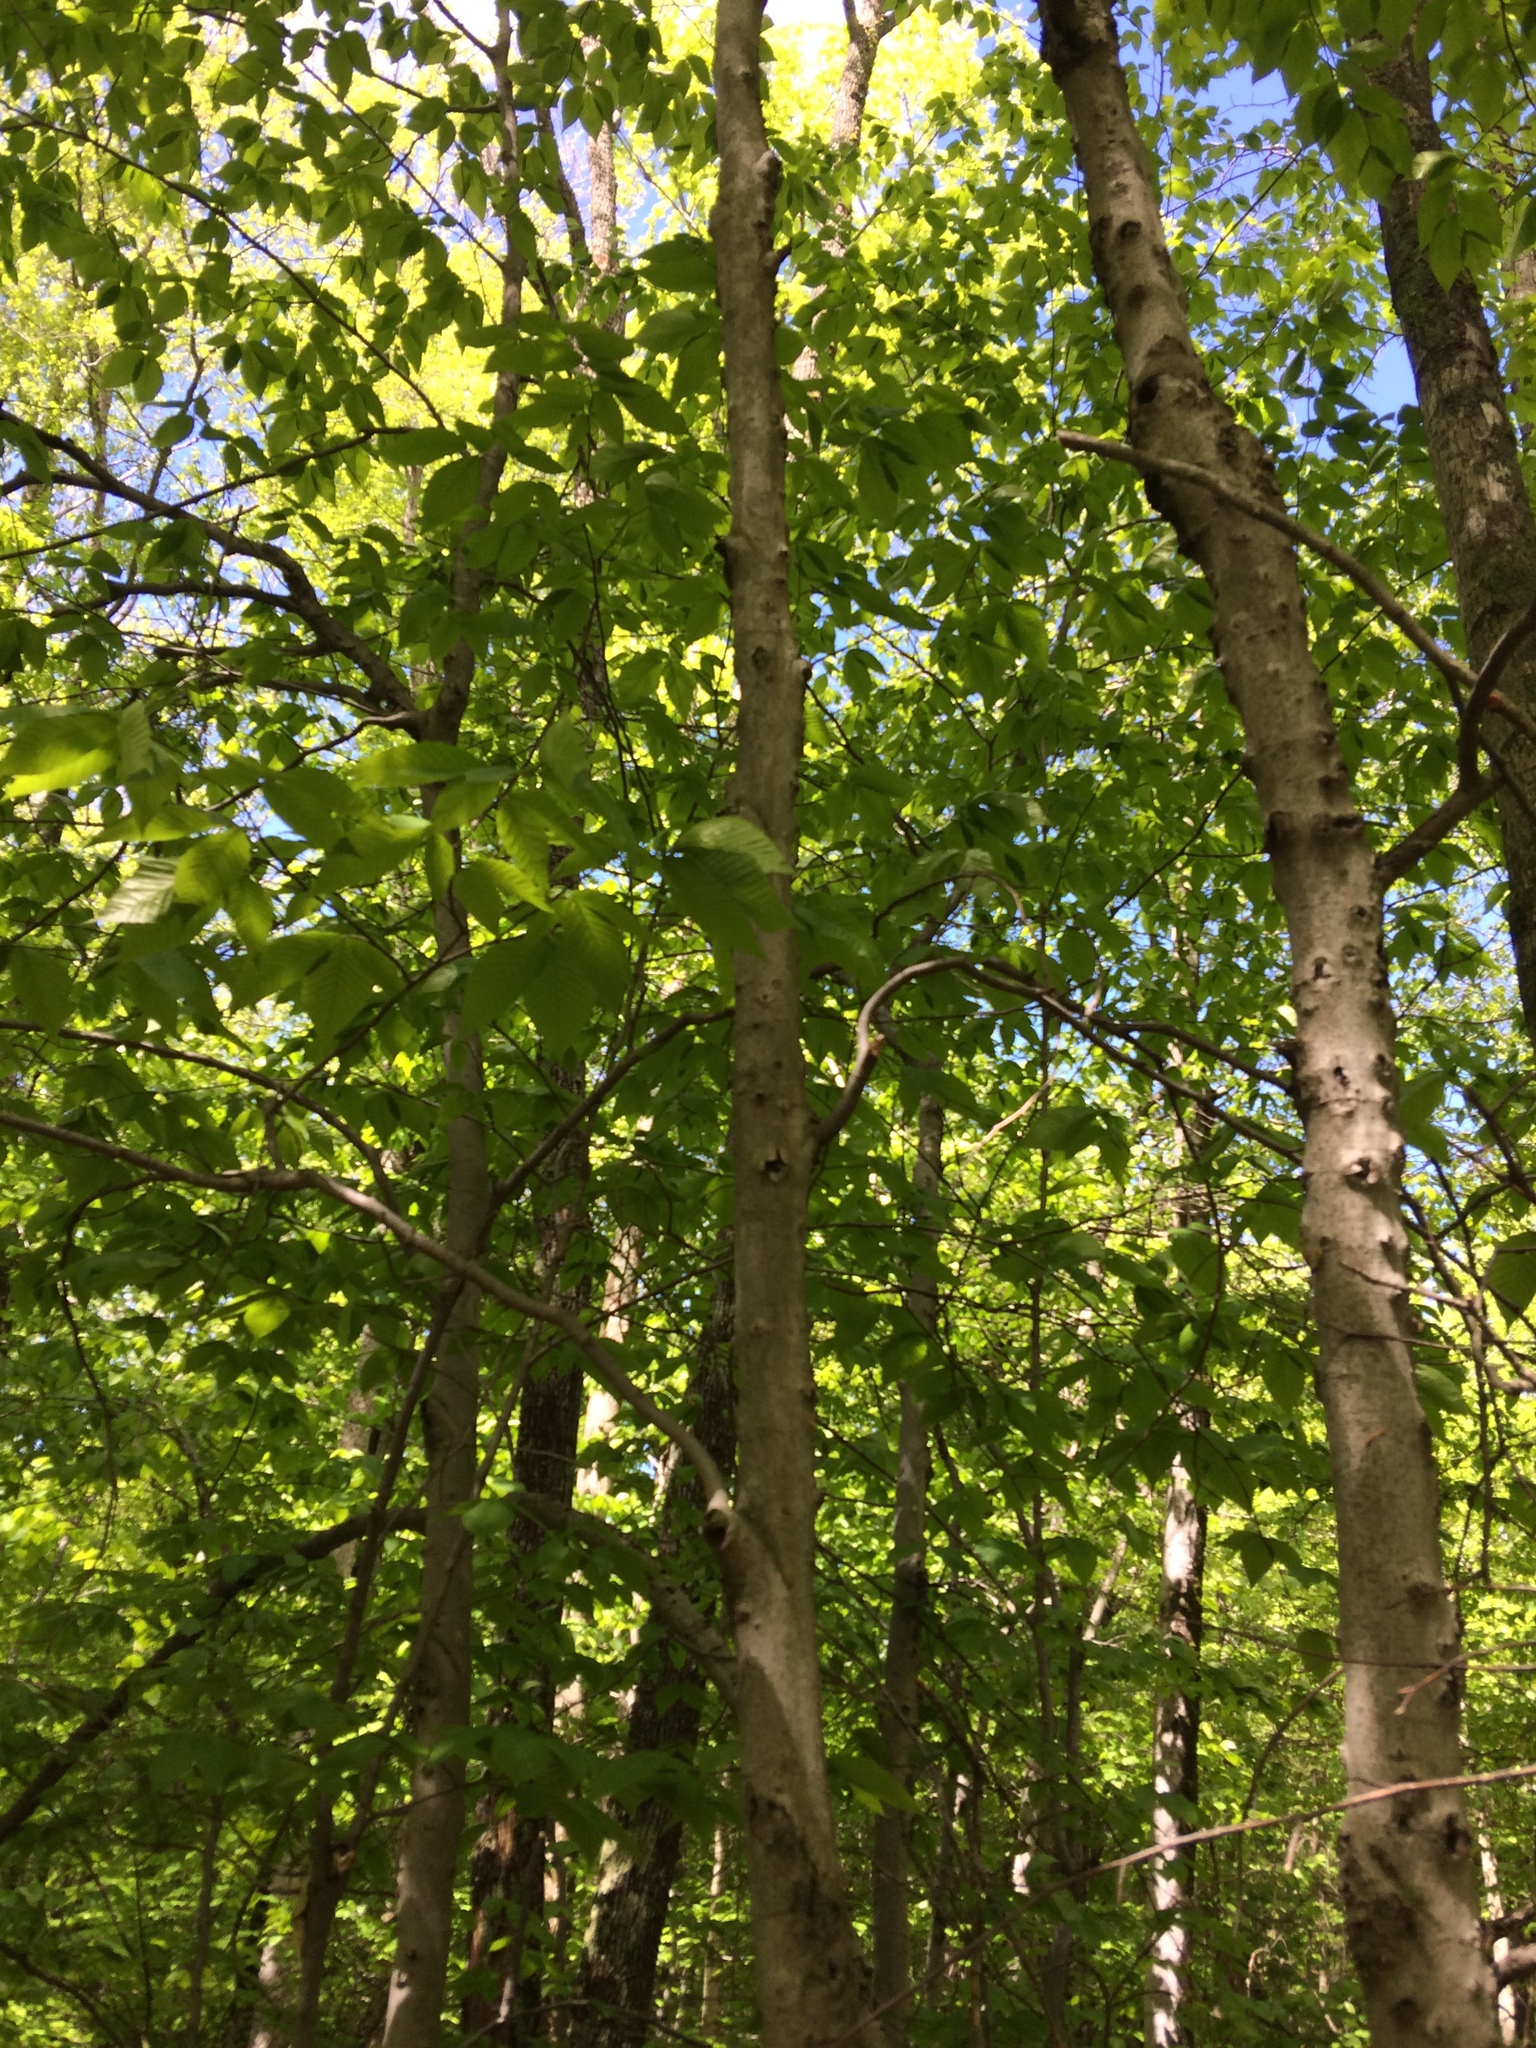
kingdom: Plantae
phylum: Tracheophyta
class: Magnoliopsida
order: Fagales
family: Fagaceae
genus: Fagus
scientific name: Fagus grandifolia
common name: American beech
